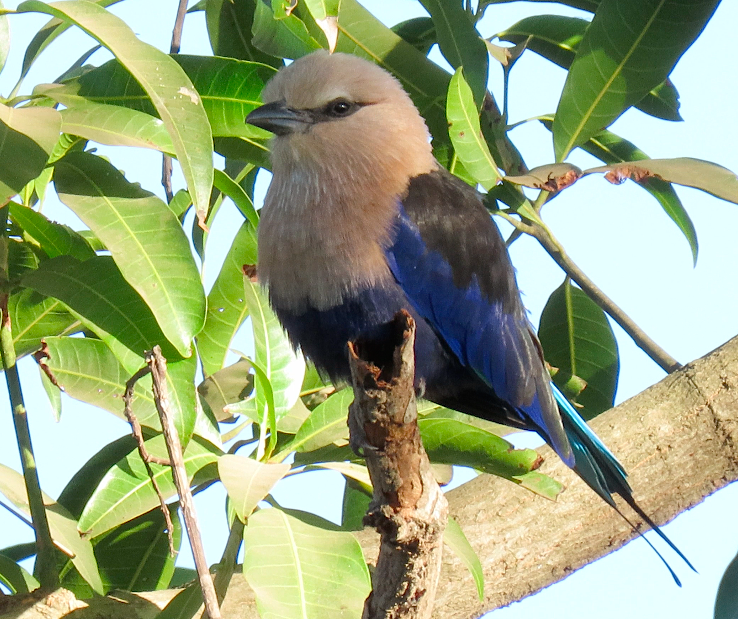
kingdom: Animalia
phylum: Chordata
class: Aves
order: Coraciiformes
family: Coraciidae
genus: Coracias
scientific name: Coracias cyanogaster
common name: Blue-bellied roller
